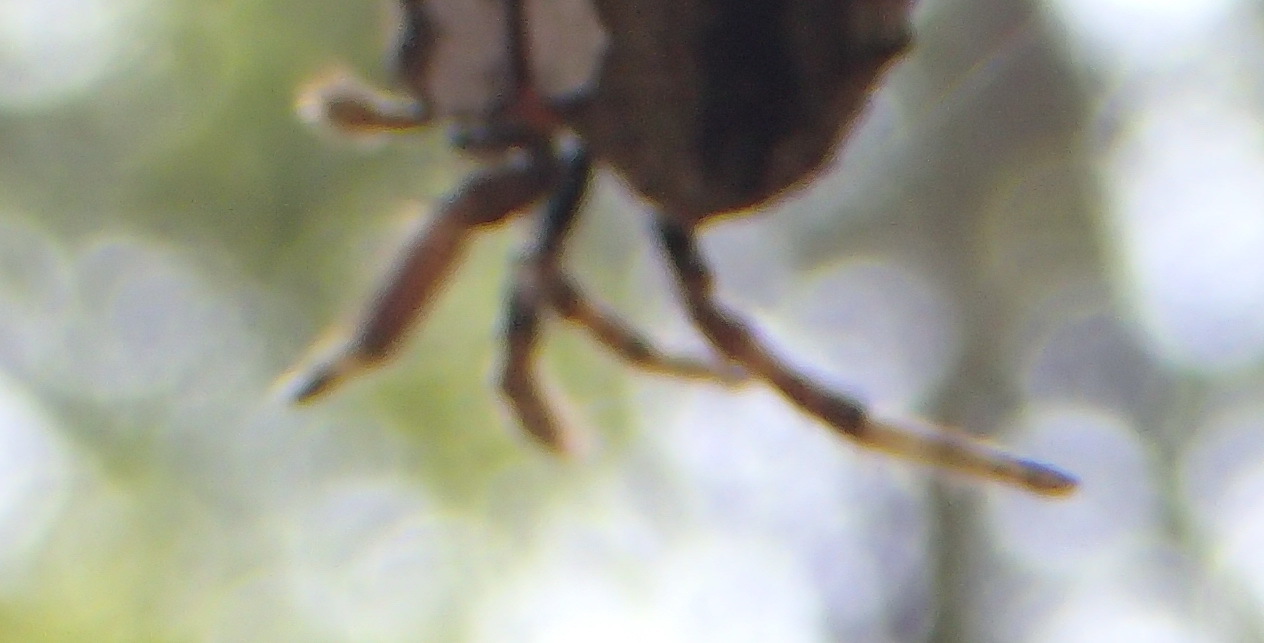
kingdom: Animalia
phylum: Arthropoda
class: Arachnida
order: Araneae
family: Araneidae
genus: Caerostris
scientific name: Caerostris sexcuspidata
